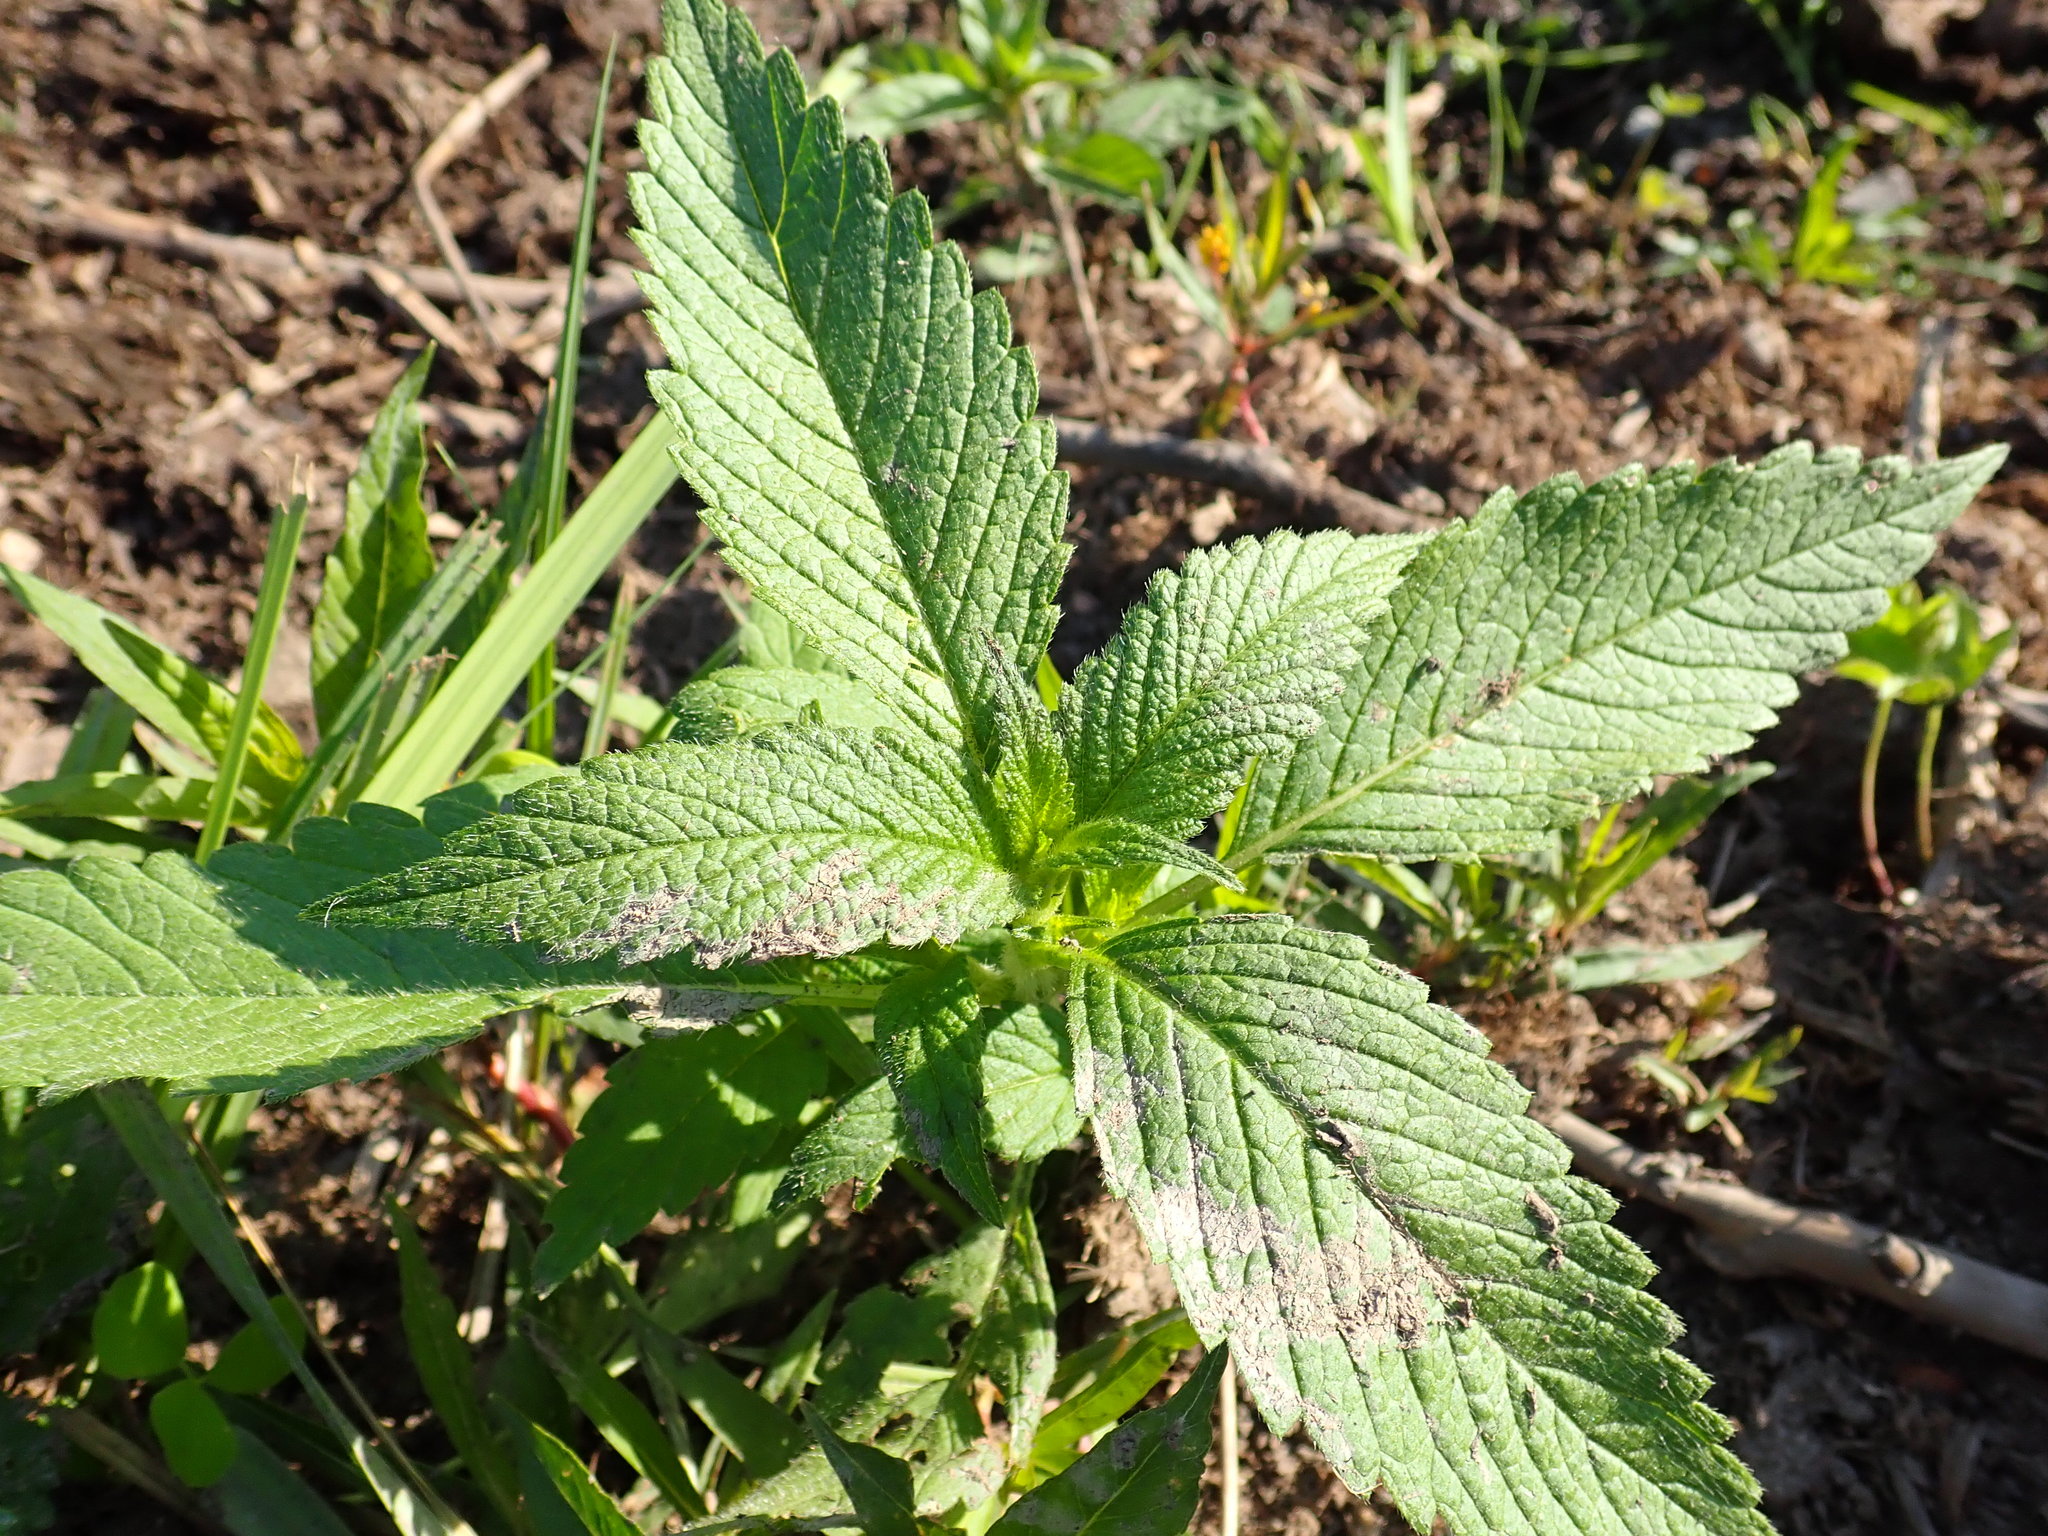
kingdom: Plantae
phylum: Tracheophyta
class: Magnoliopsida
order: Lamiales
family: Lamiaceae
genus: Galeopsis
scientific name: Galeopsis tetrahit
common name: Common hemp-nettle
